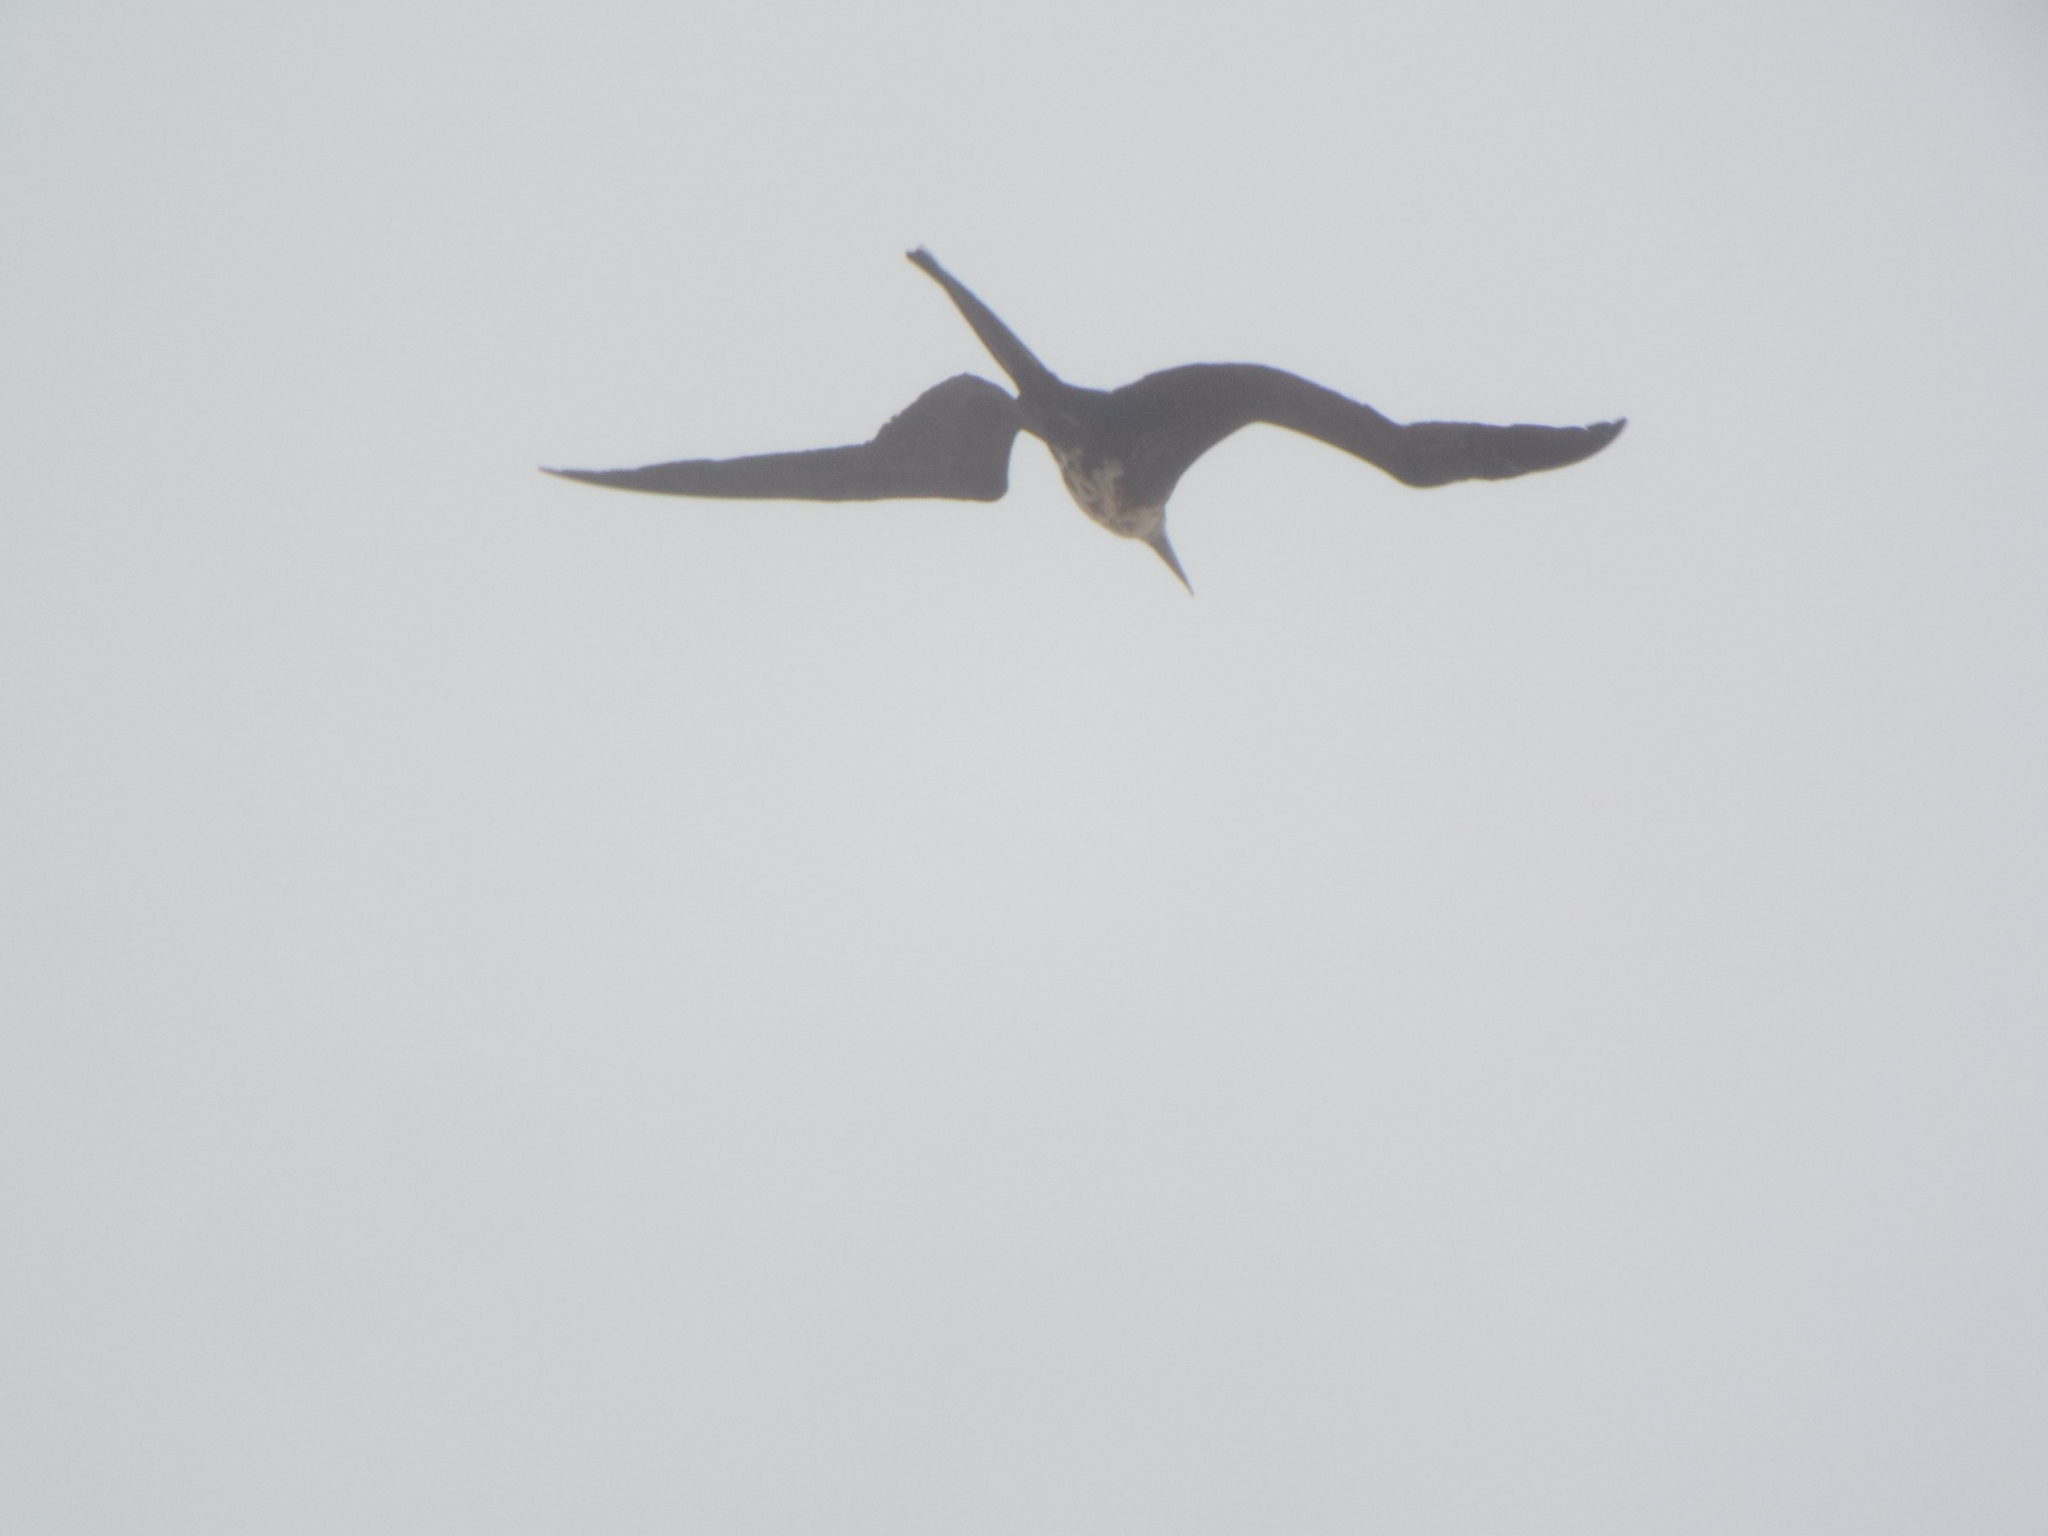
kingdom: Animalia
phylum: Chordata
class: Aves
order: Suliformes
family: Fregatidae
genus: Fregata
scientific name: Fregata magnificens
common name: Magnificent frigatebird
